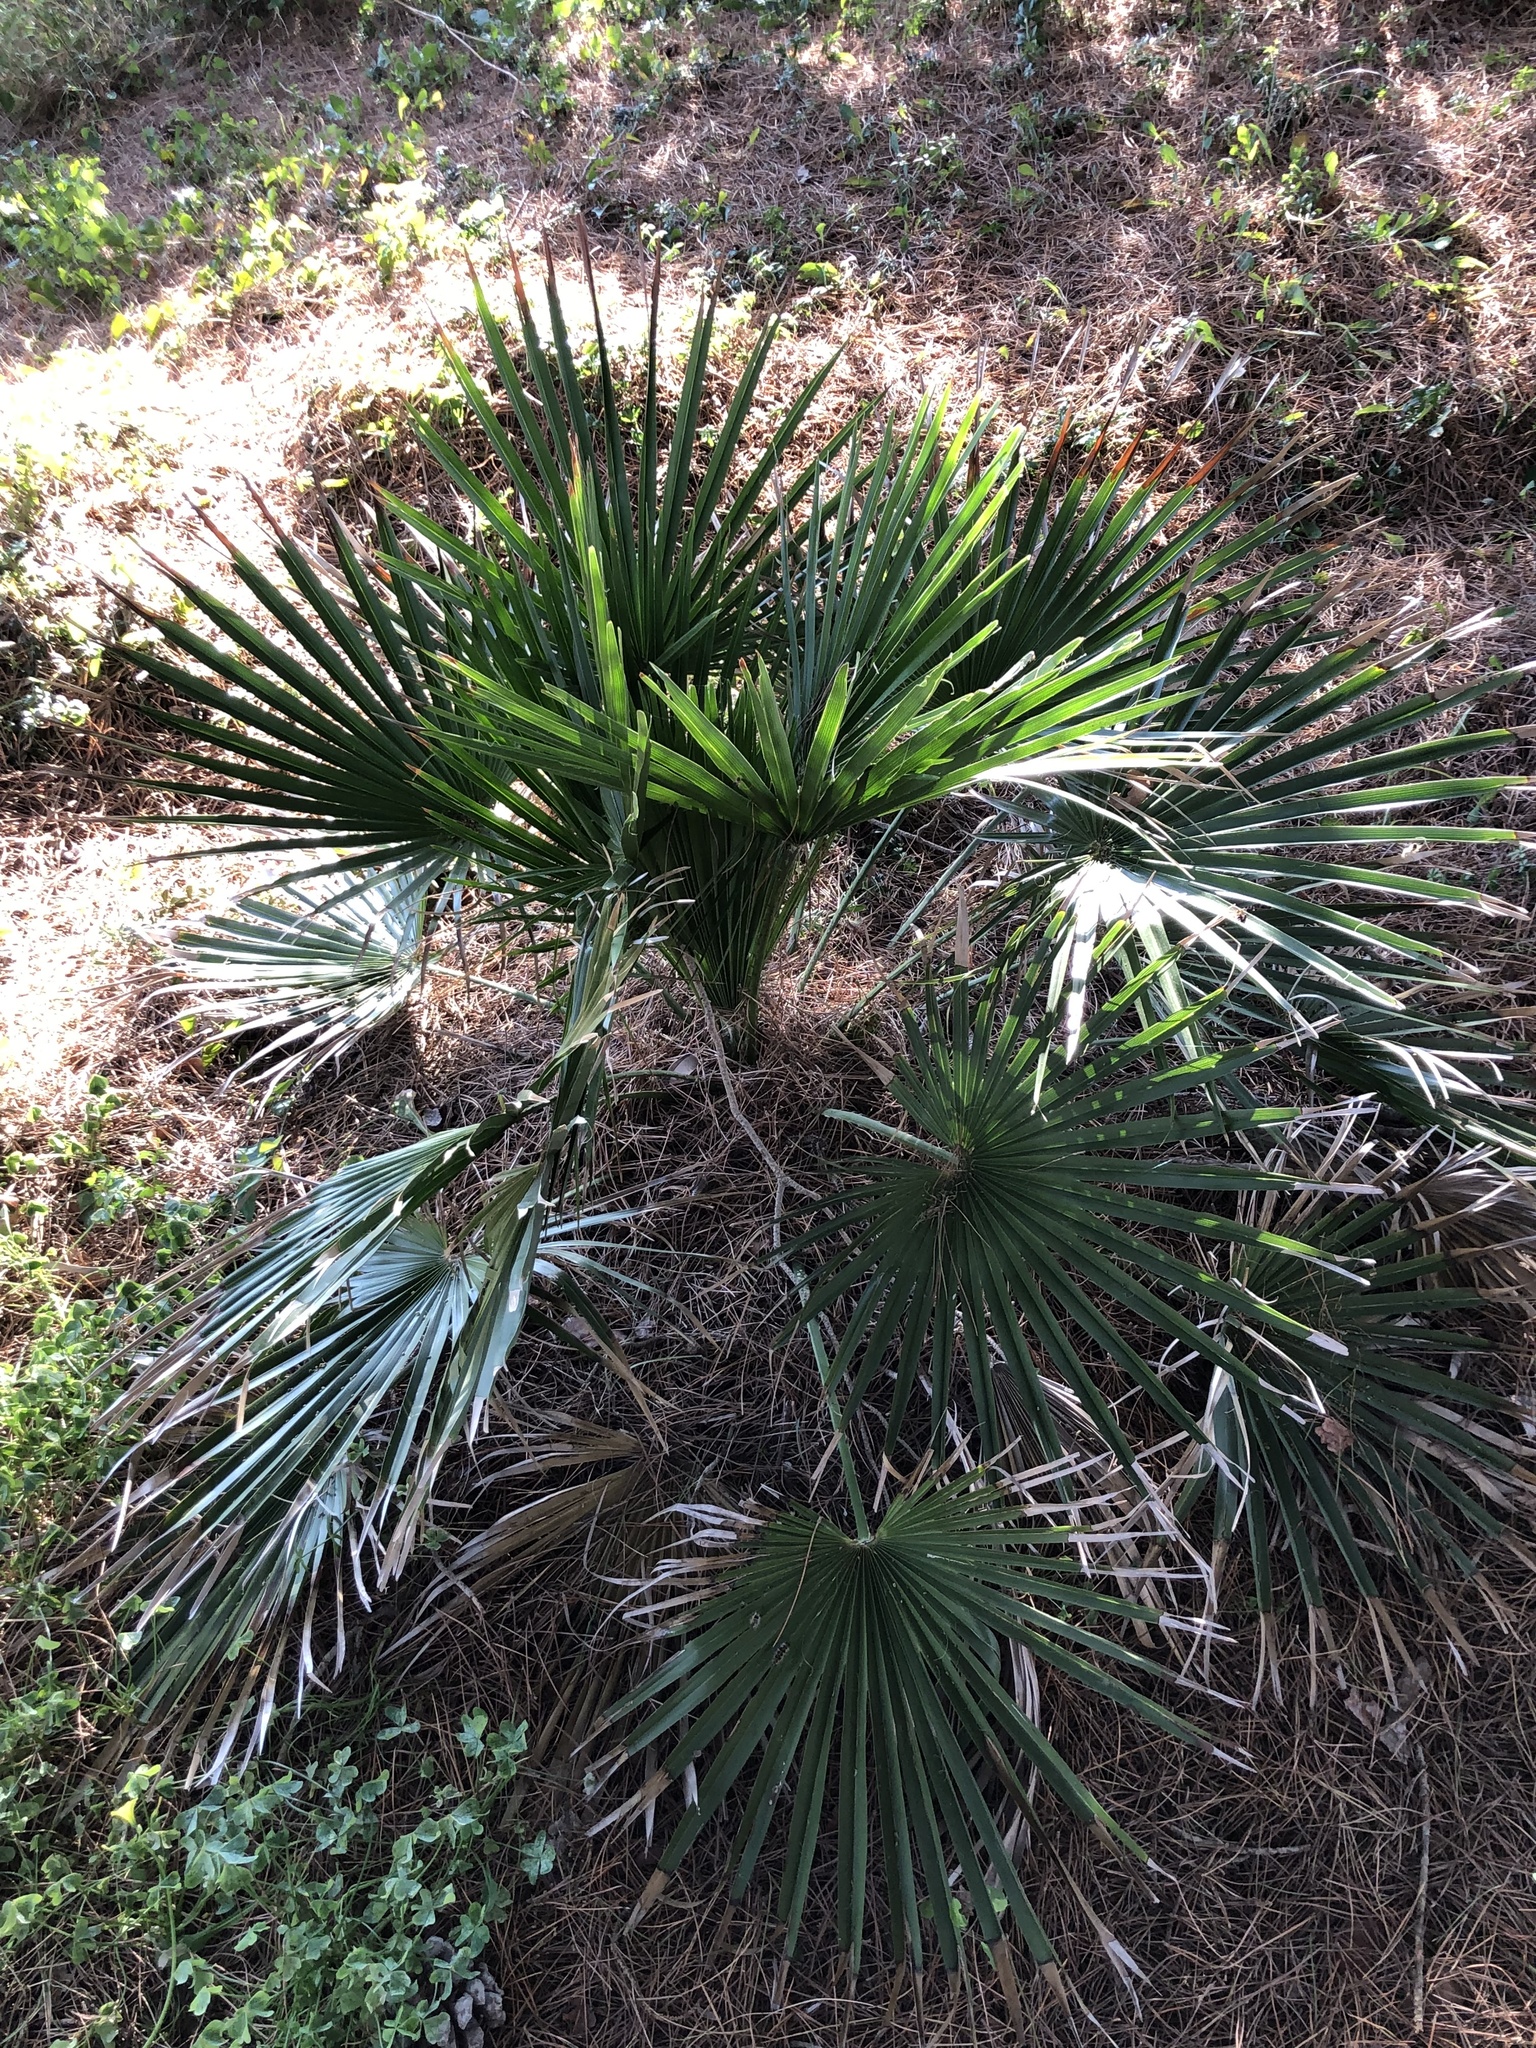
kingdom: Plantae
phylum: Tracheophyta
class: Liliopsida
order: Arecales
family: Arecaceae
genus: Chamaerops
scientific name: Chamaerops humilis
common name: Dwarf fan palm
